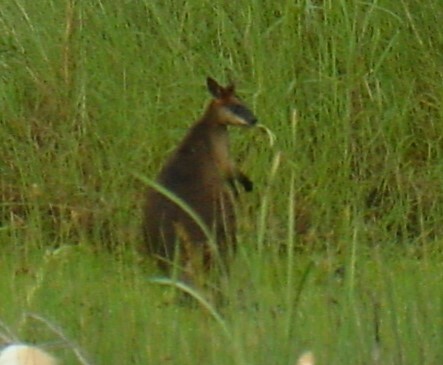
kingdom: Animalia
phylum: Chordata
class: Mammalia
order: Diprotodontia
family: Macropodidae
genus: Wallabia
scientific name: Wallabia bicolor
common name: Swamp wallaby
